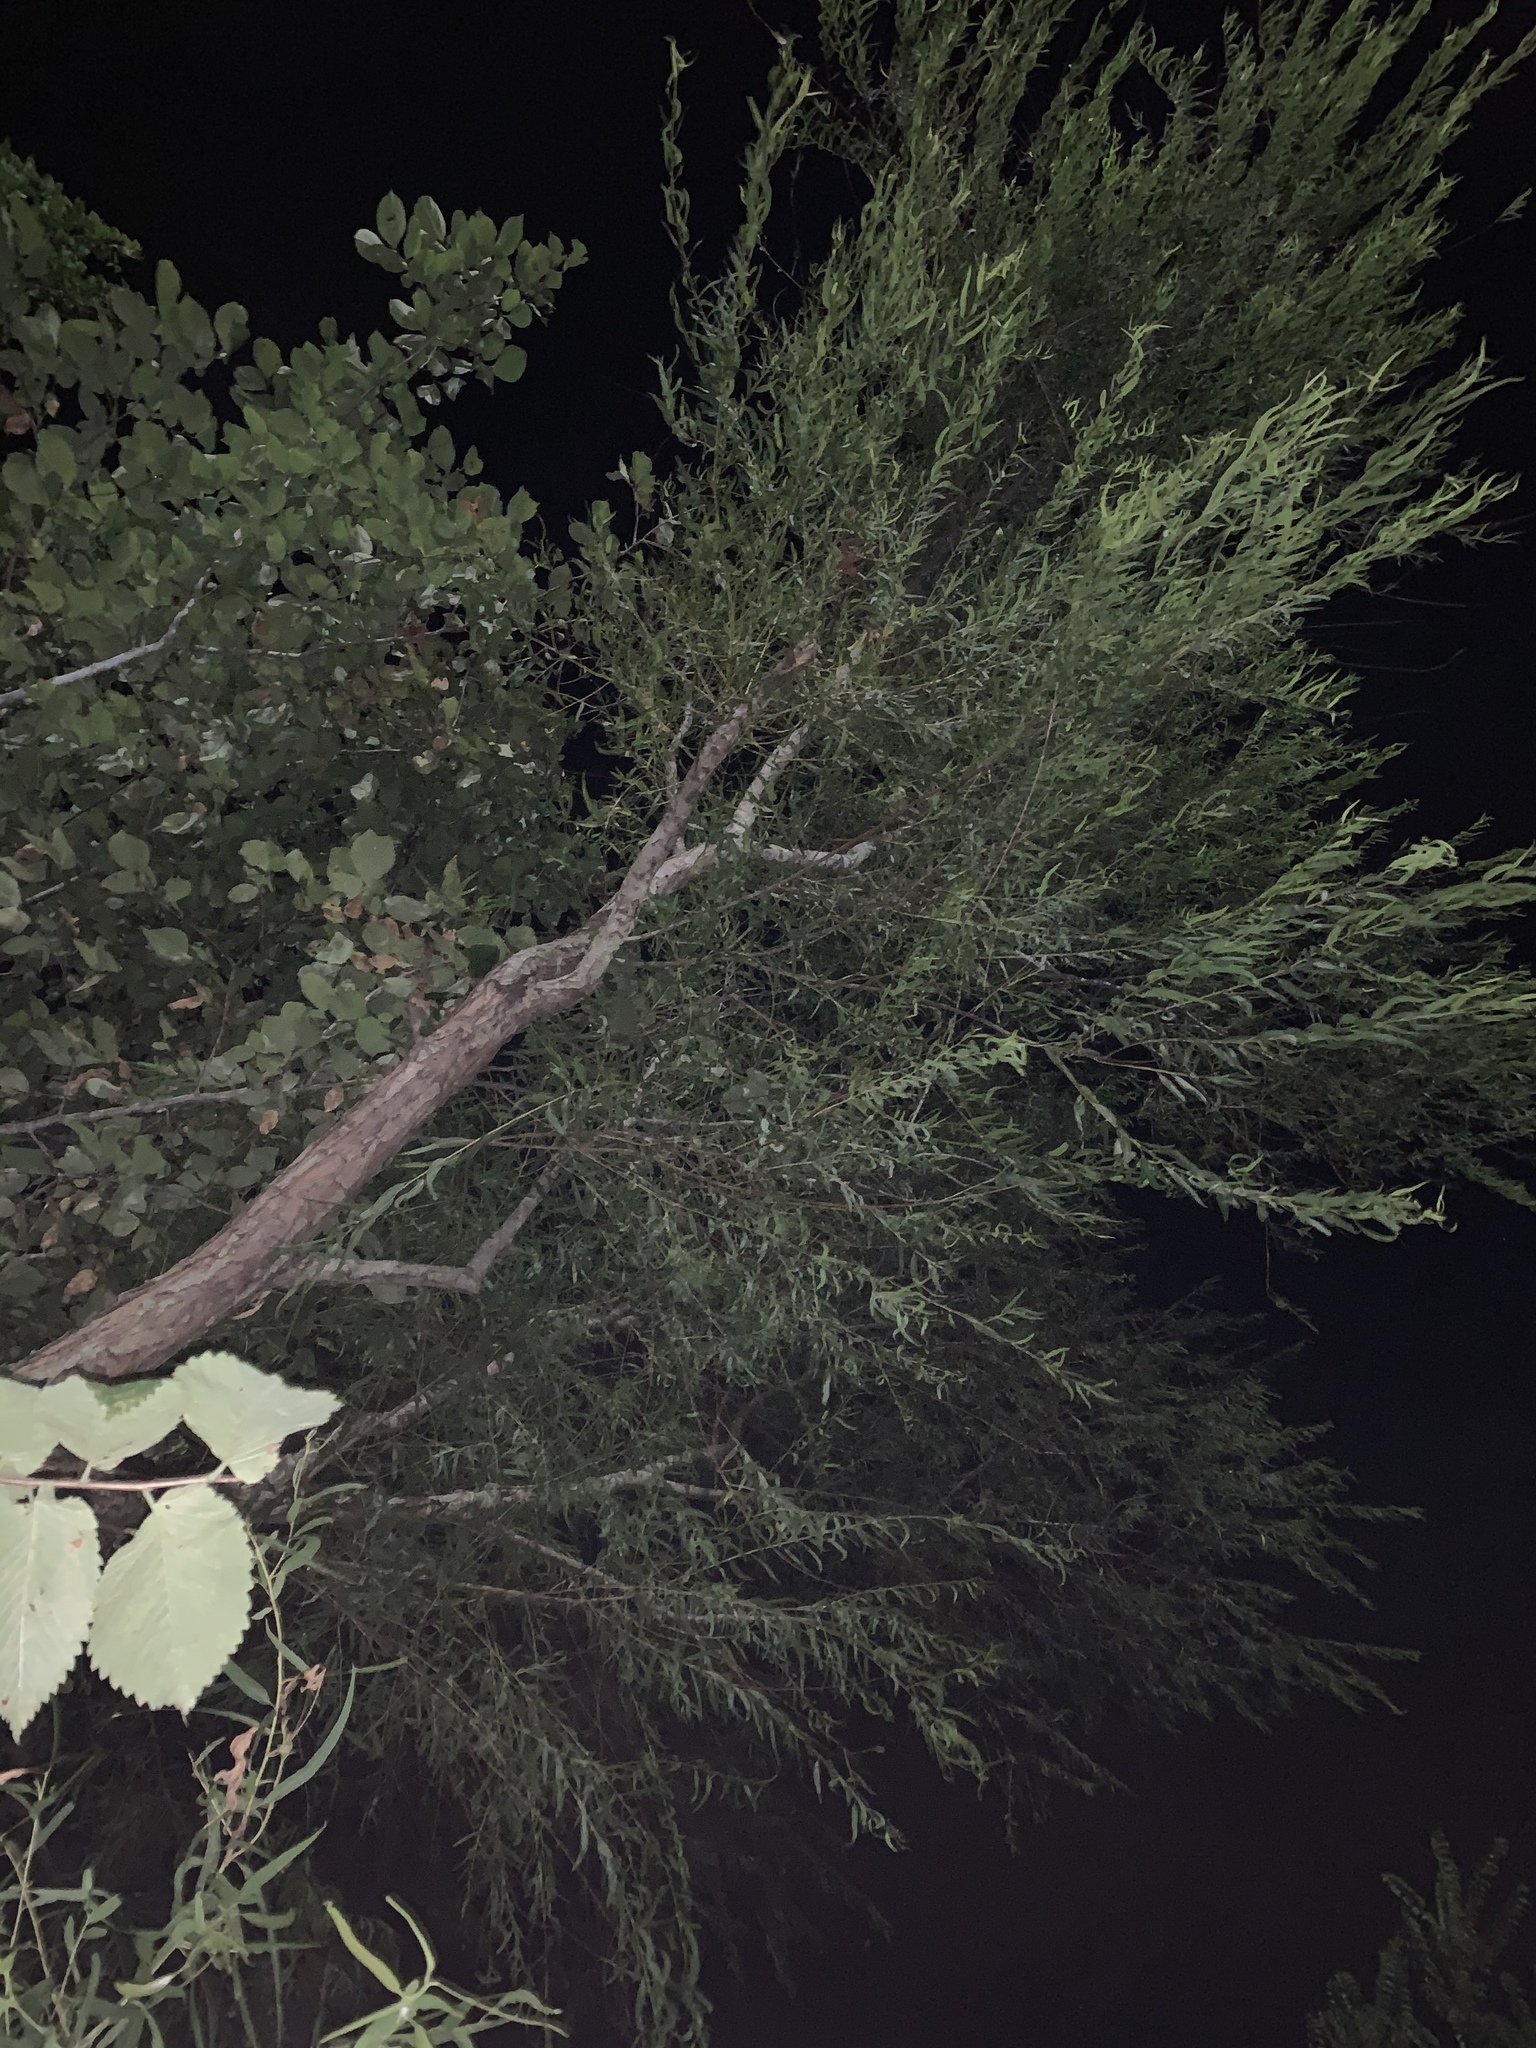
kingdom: Plantae
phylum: Tracheophyta
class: Magnoliopsida
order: Malpighiales
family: Salicaceae
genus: Salix
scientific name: Salix nigra
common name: Black willow
